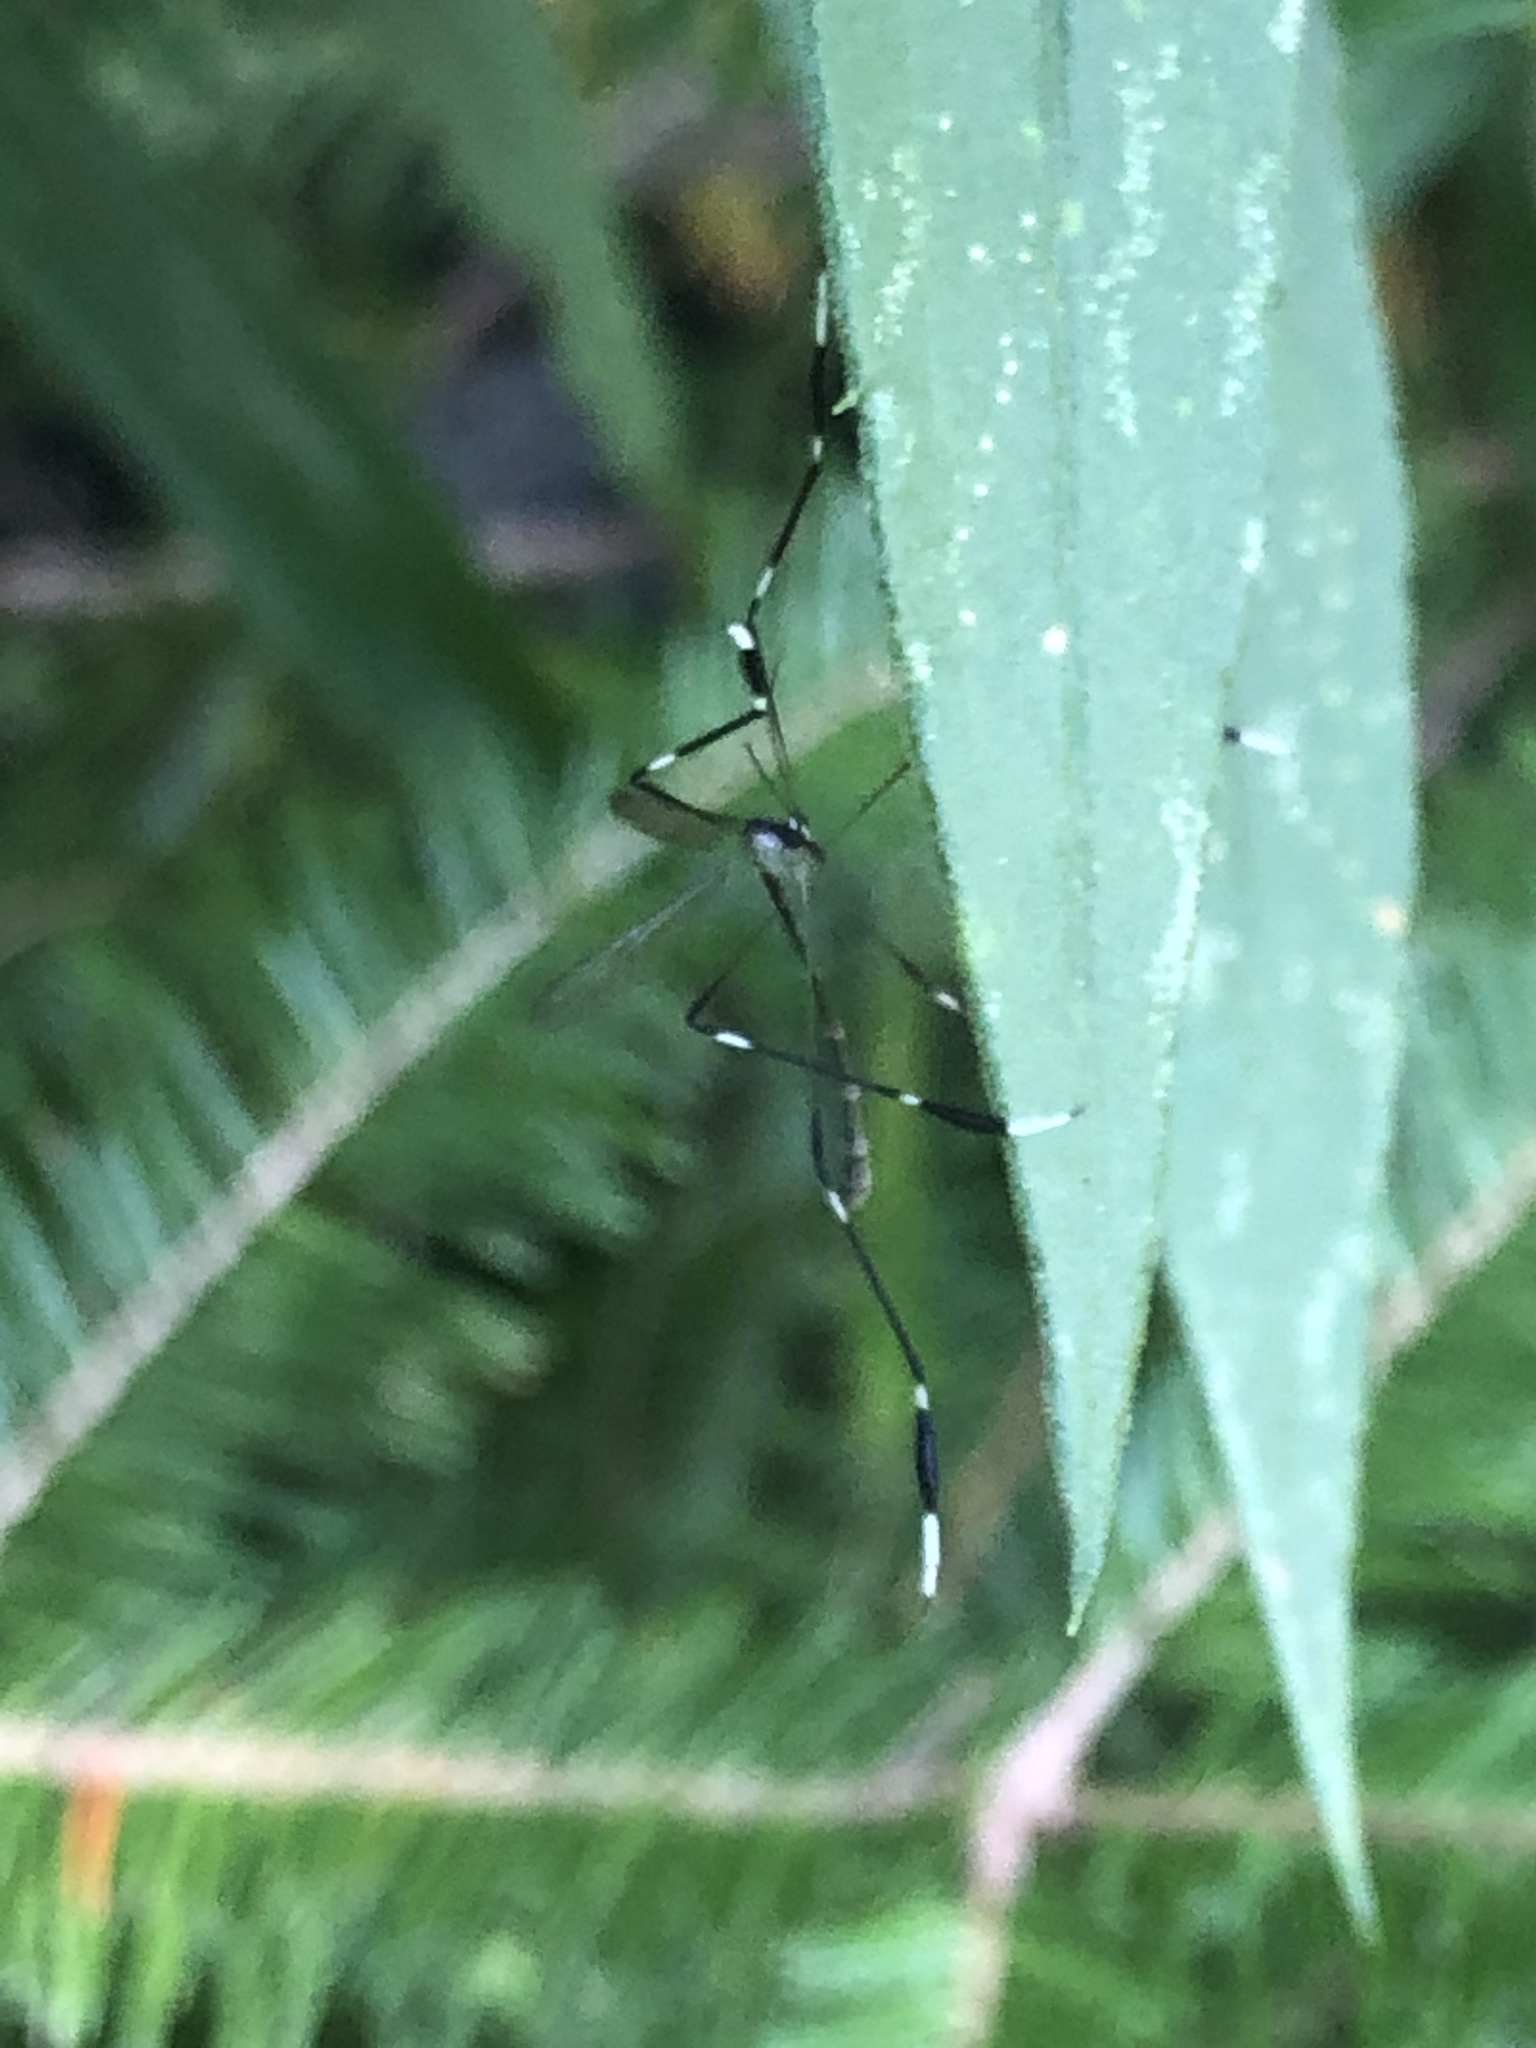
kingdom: Animalia
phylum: Arthropoda
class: Insecta
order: Diptera
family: Ptychopteridae
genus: Bittacomorpha
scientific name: Bittacomorpha clavipes
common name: Eastern phantom crane fly
